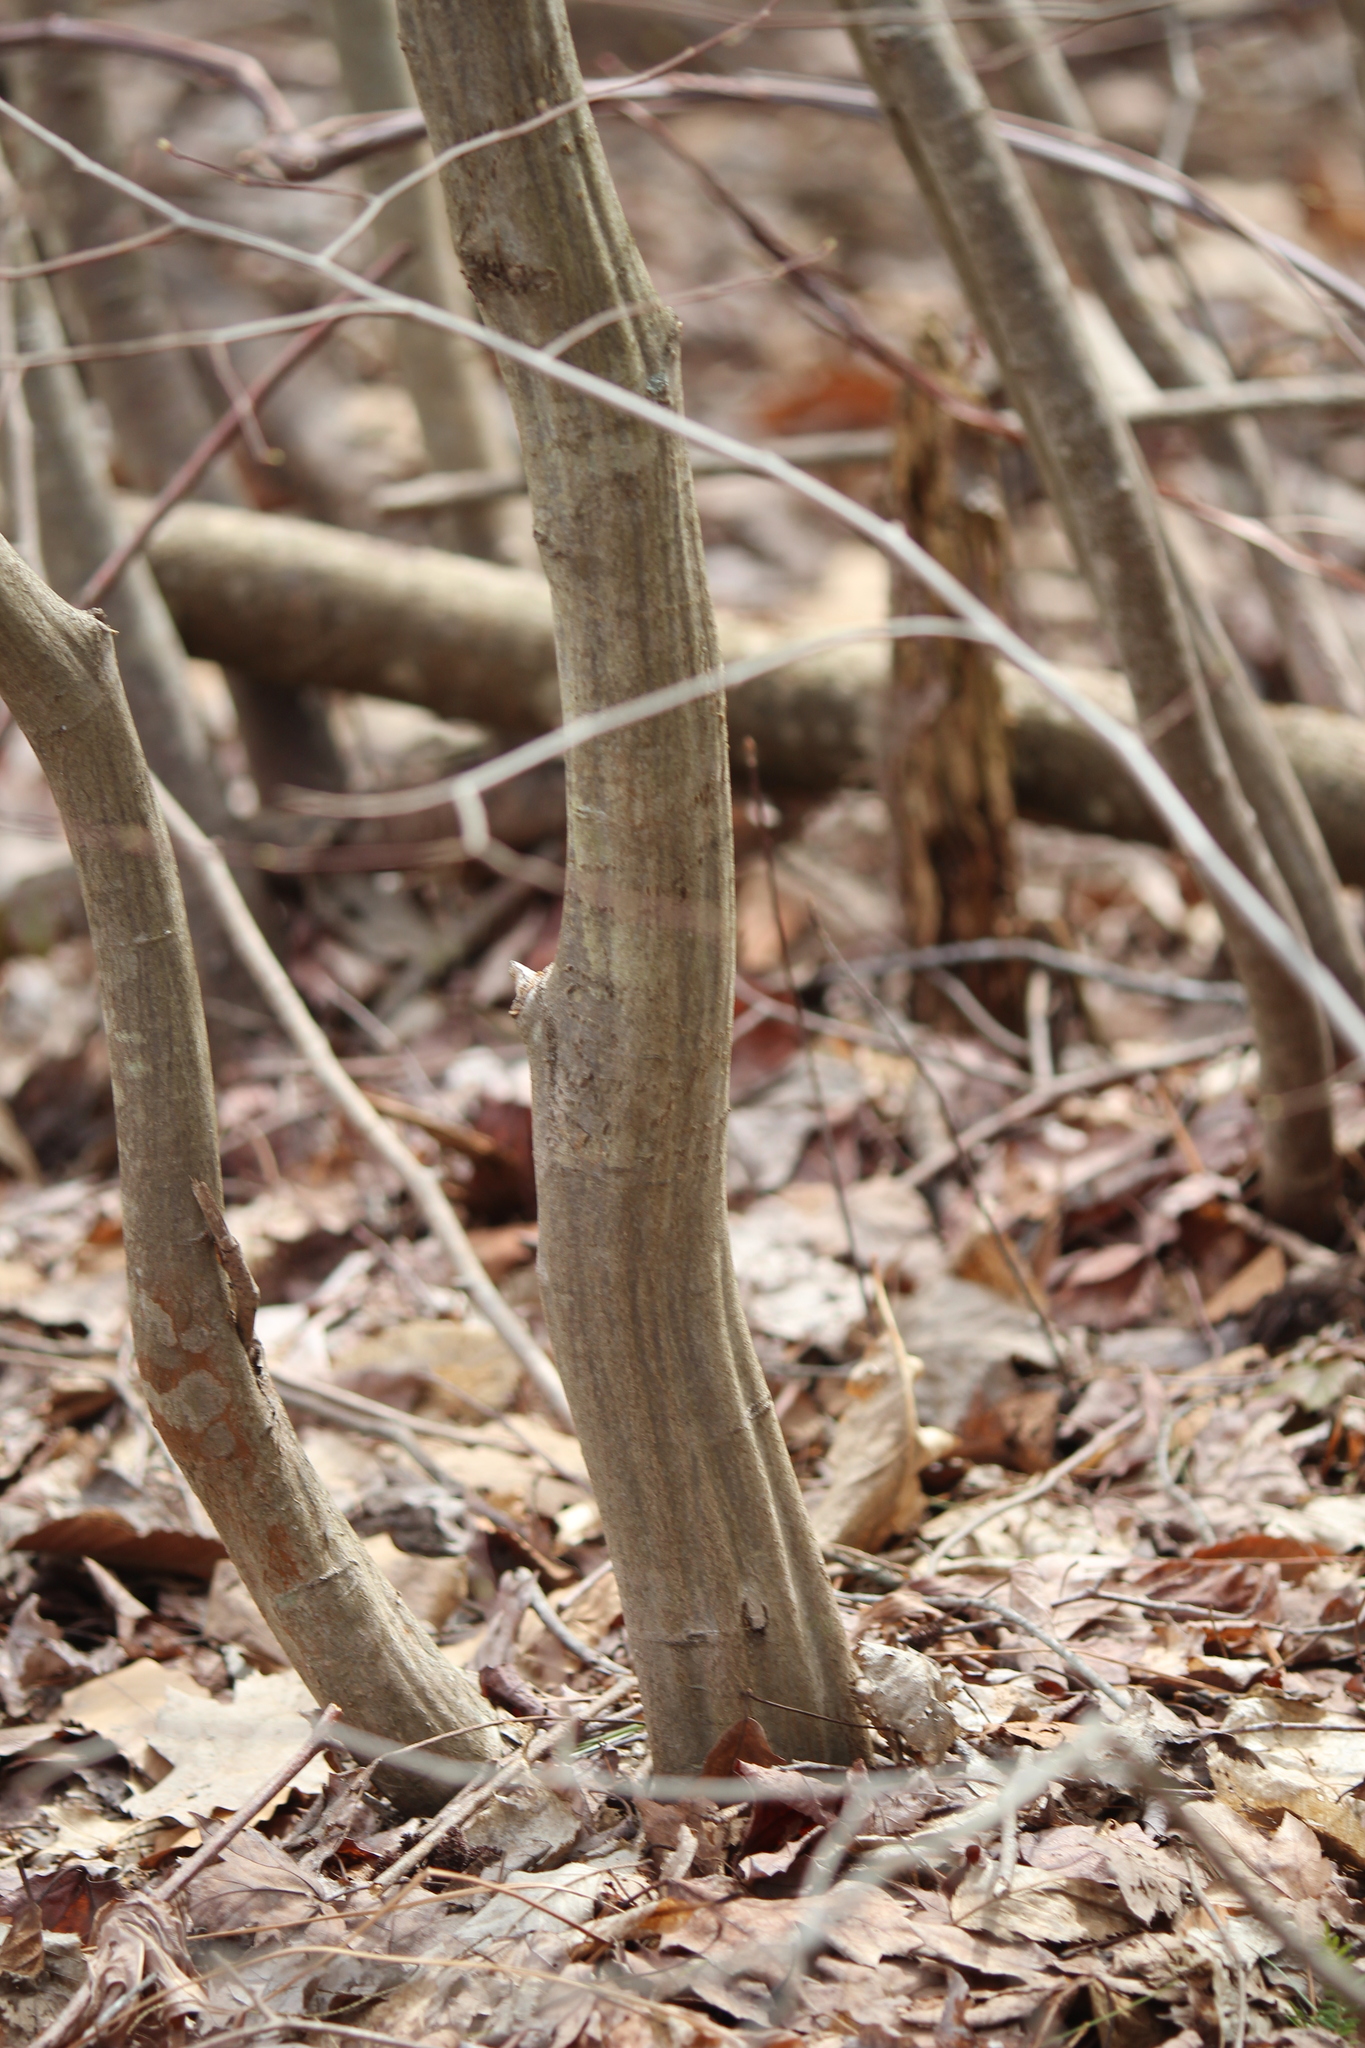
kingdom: Plantae
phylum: Tracheophyta
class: Magnoliopsida
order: Fagales
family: Betulaceae
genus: Carpinus
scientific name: Carpinus caroliniana
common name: American hornbeam
